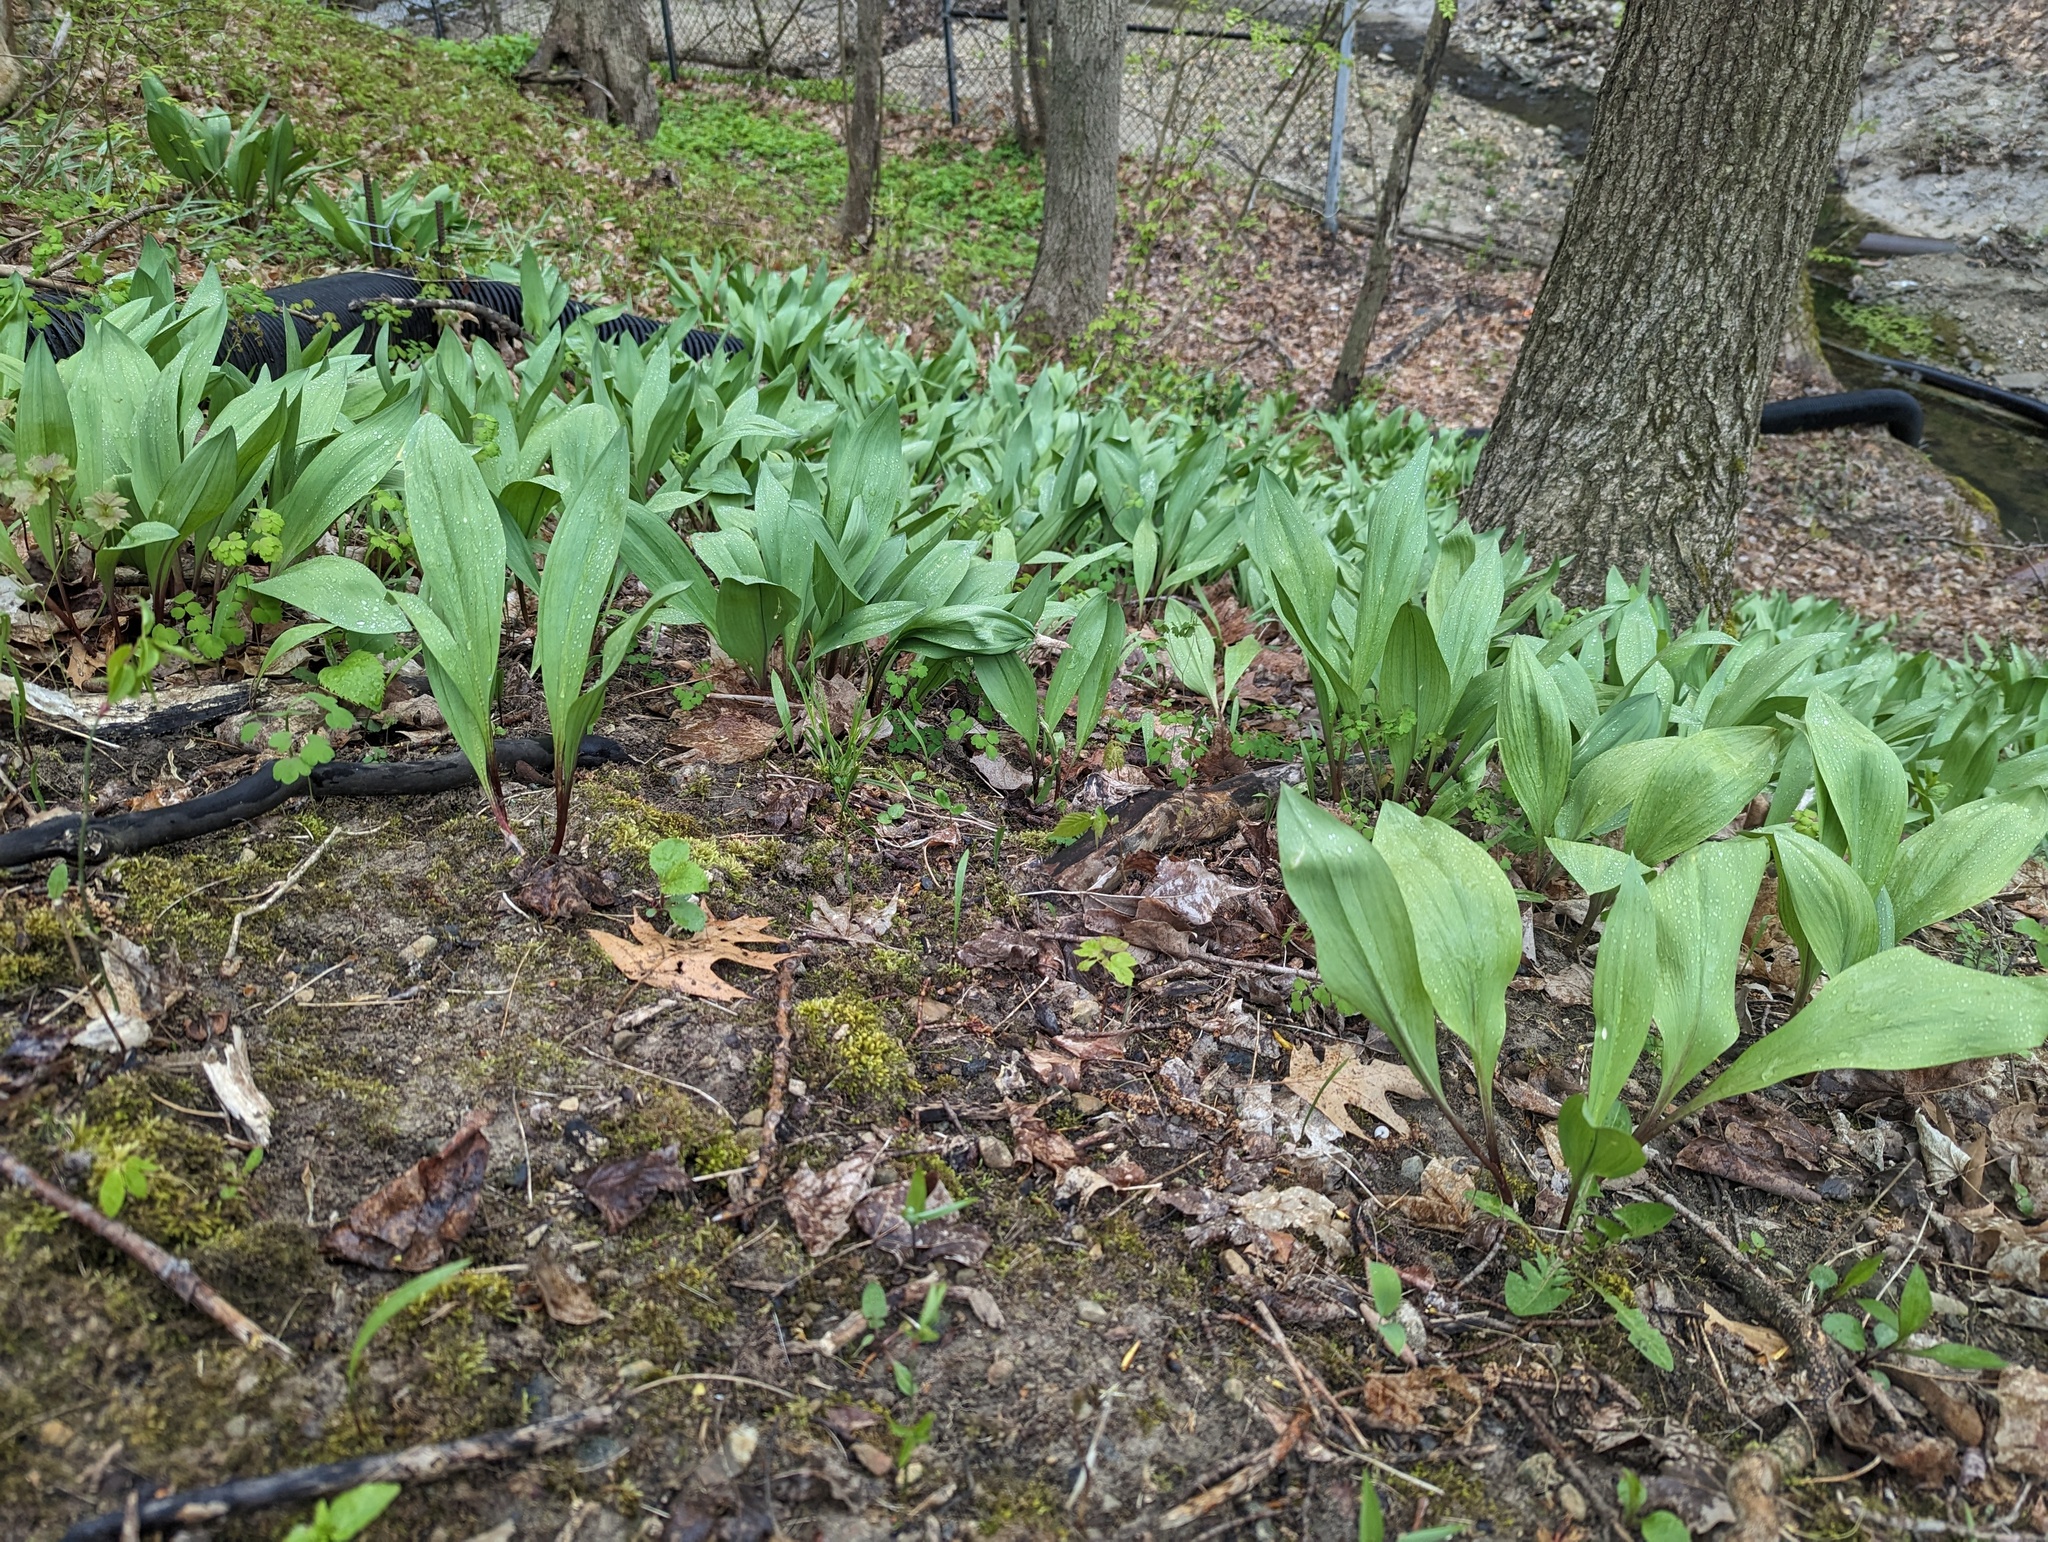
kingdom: Plantae
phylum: Tracheophyta
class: Liliopsida
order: Asparagales
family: Amaryllidaceae
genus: Allium
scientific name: Allium tricoccum
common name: Ramp
